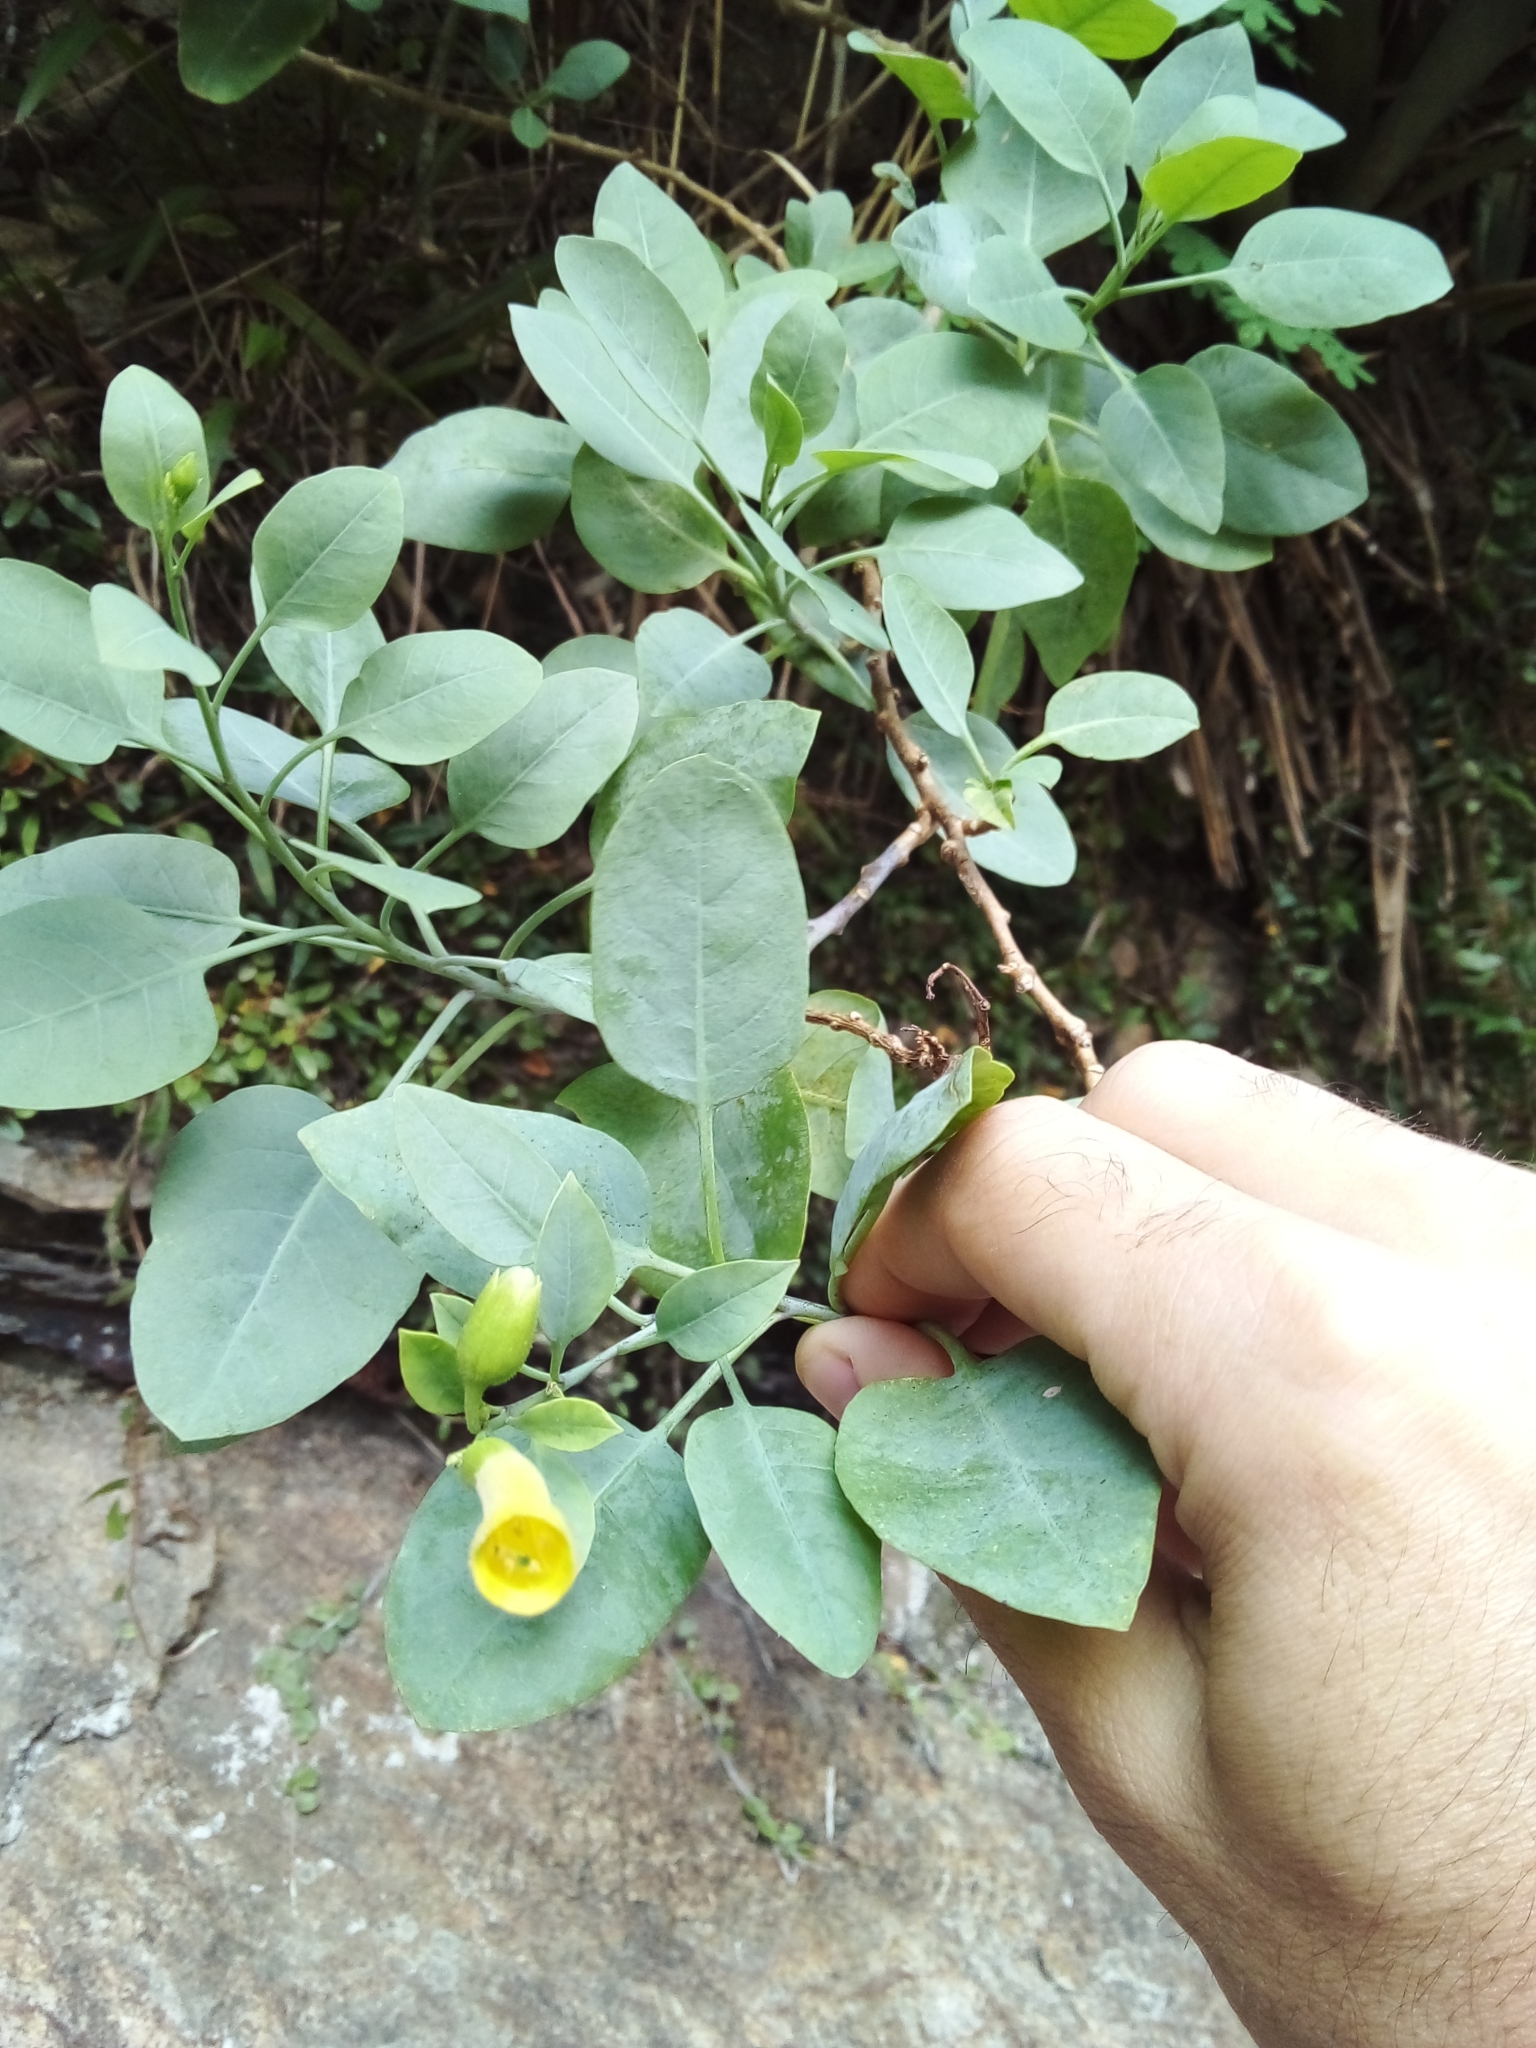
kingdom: Plantae
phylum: Tracheophyta
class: Magnoliopsida
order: Solanales
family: Solanaceae
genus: Nicotiana
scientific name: Nicotiana glauca
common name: Tree tobacco
